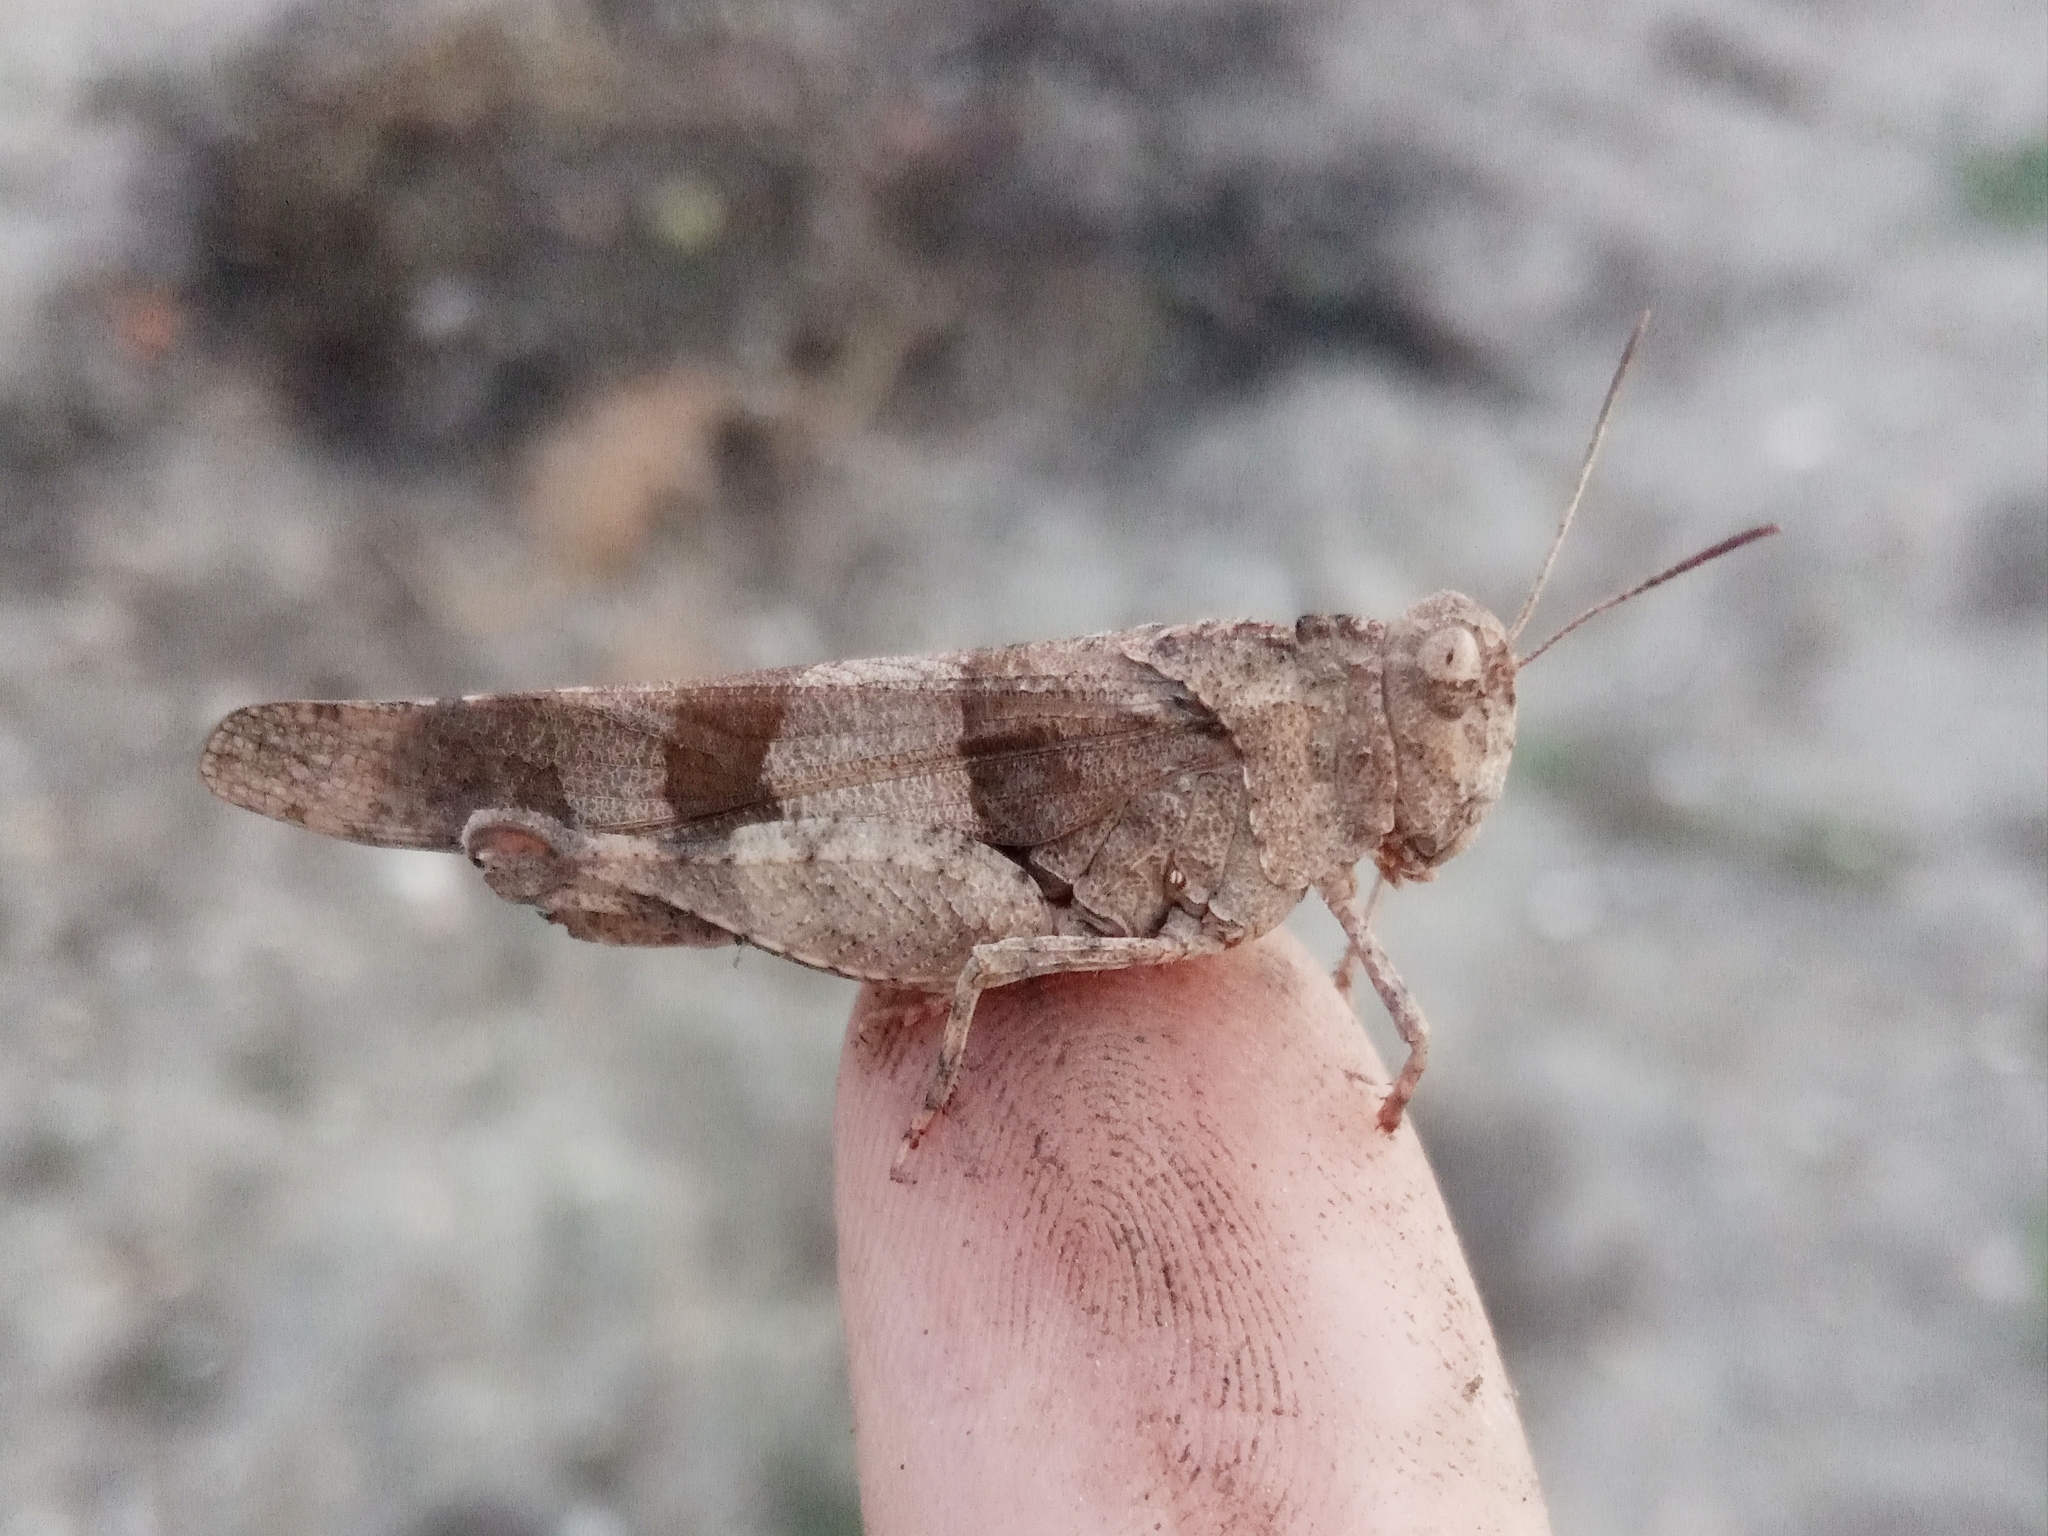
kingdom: Animalia
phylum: Arthropoda
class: Insecta
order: Orthoptera
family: Acrididae
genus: Oedipoda
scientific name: Oedipoda
